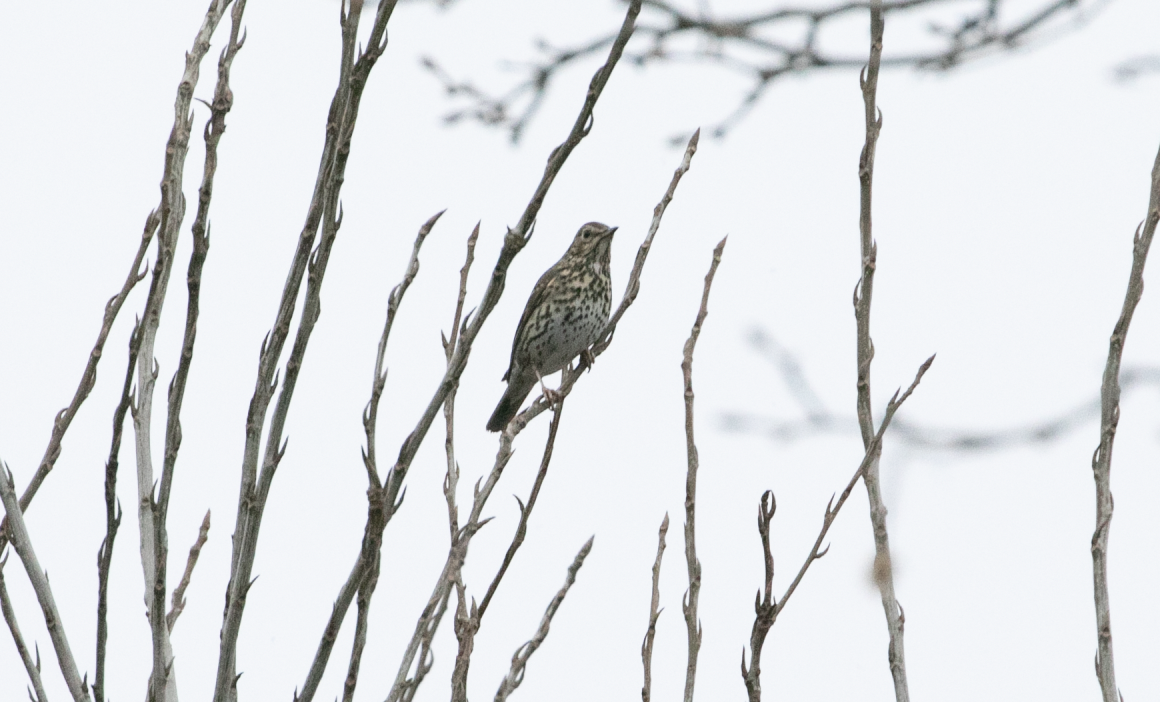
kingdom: Animalia
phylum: Chordata
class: Aves
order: Passeriformes
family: Turdidae
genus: Turdus
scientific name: Turdus philomelos
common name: Song thrush
